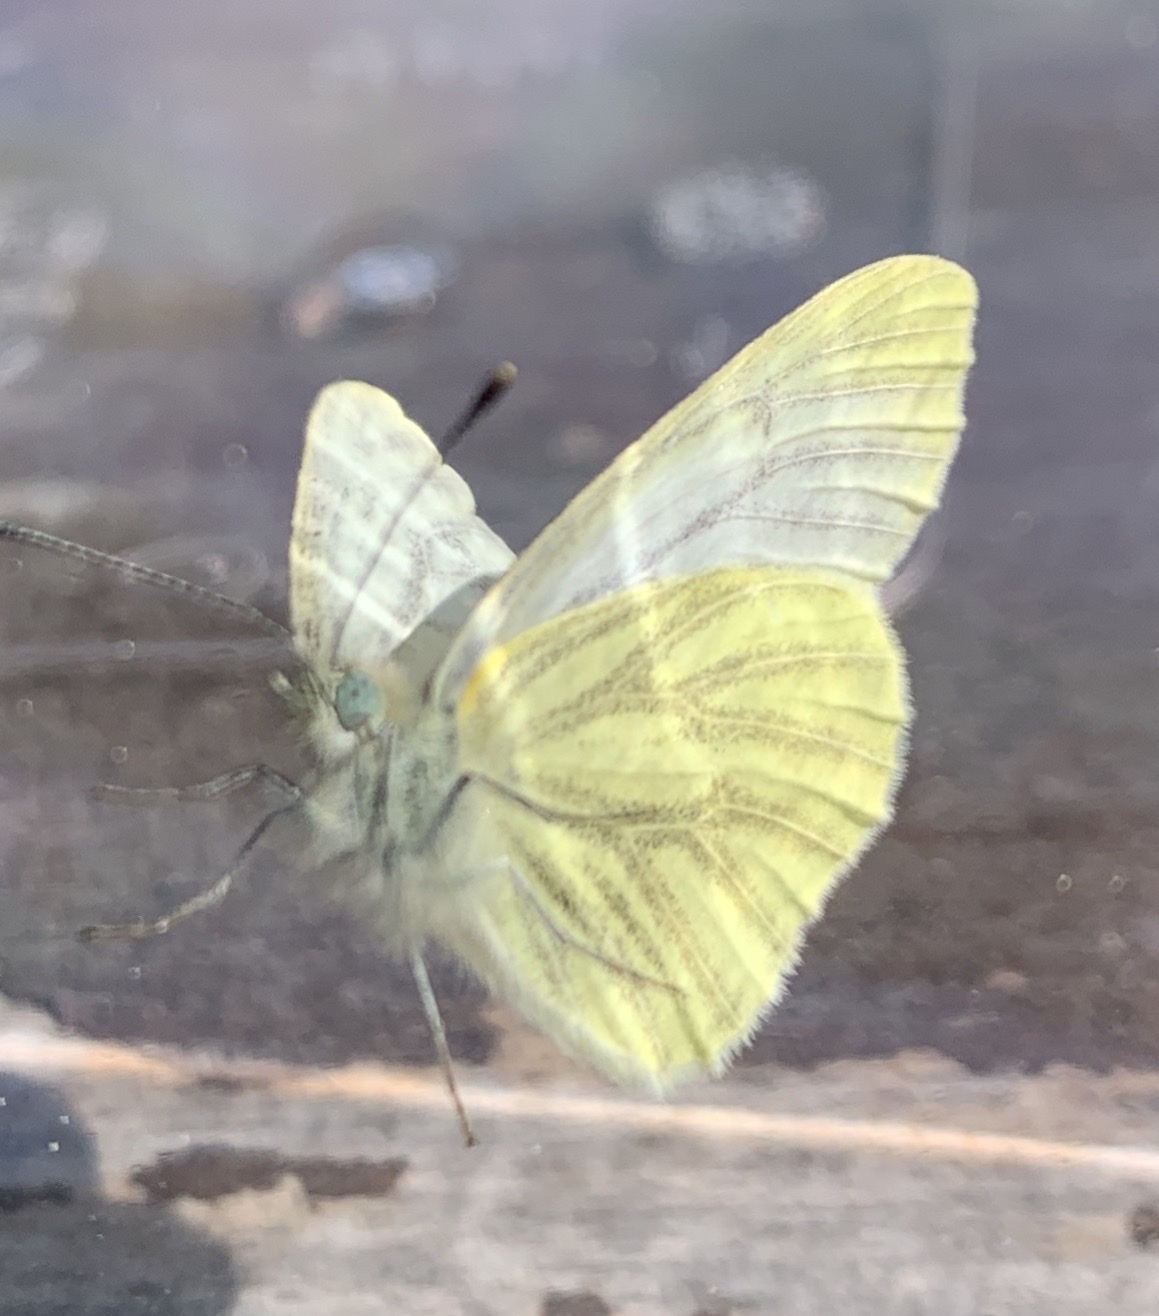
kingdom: Animalia
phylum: Arthropoda
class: Insecta
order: Lepidoptera
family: Pieridae
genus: Pieris
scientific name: Pieris marginalis
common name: Margined white
